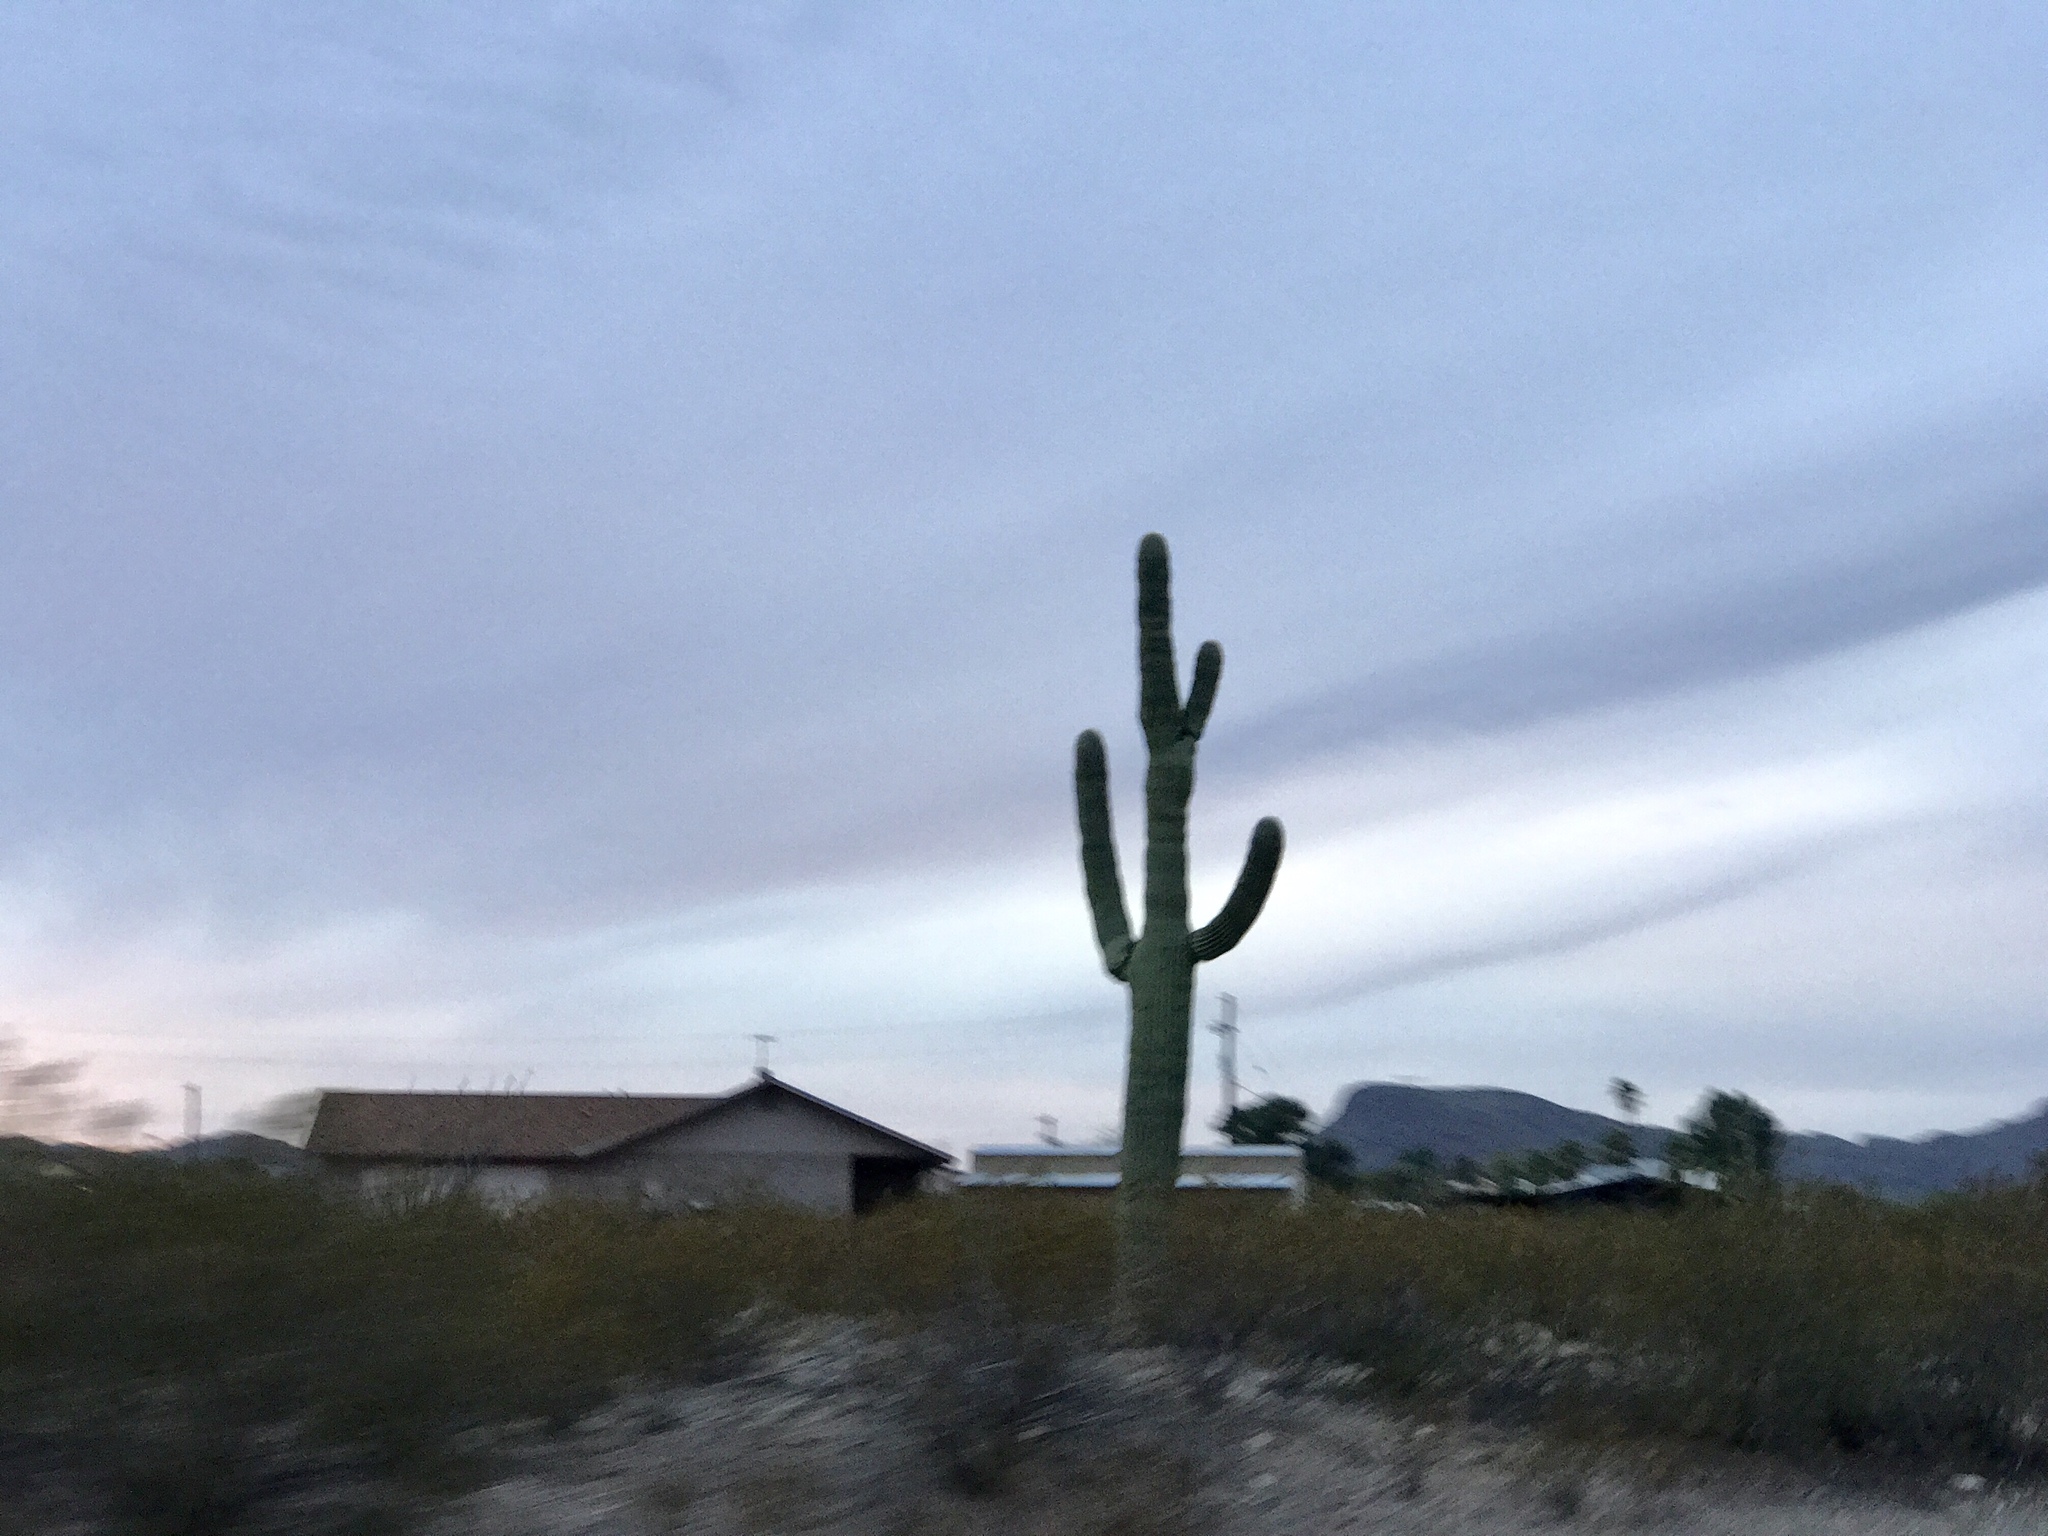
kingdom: Plantae
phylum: Tracheophyta
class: Magnoliopsida
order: Caryophyllales
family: Cactaceae
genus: Carnegiea
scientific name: Carnegiea gigantea
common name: Saguaro
